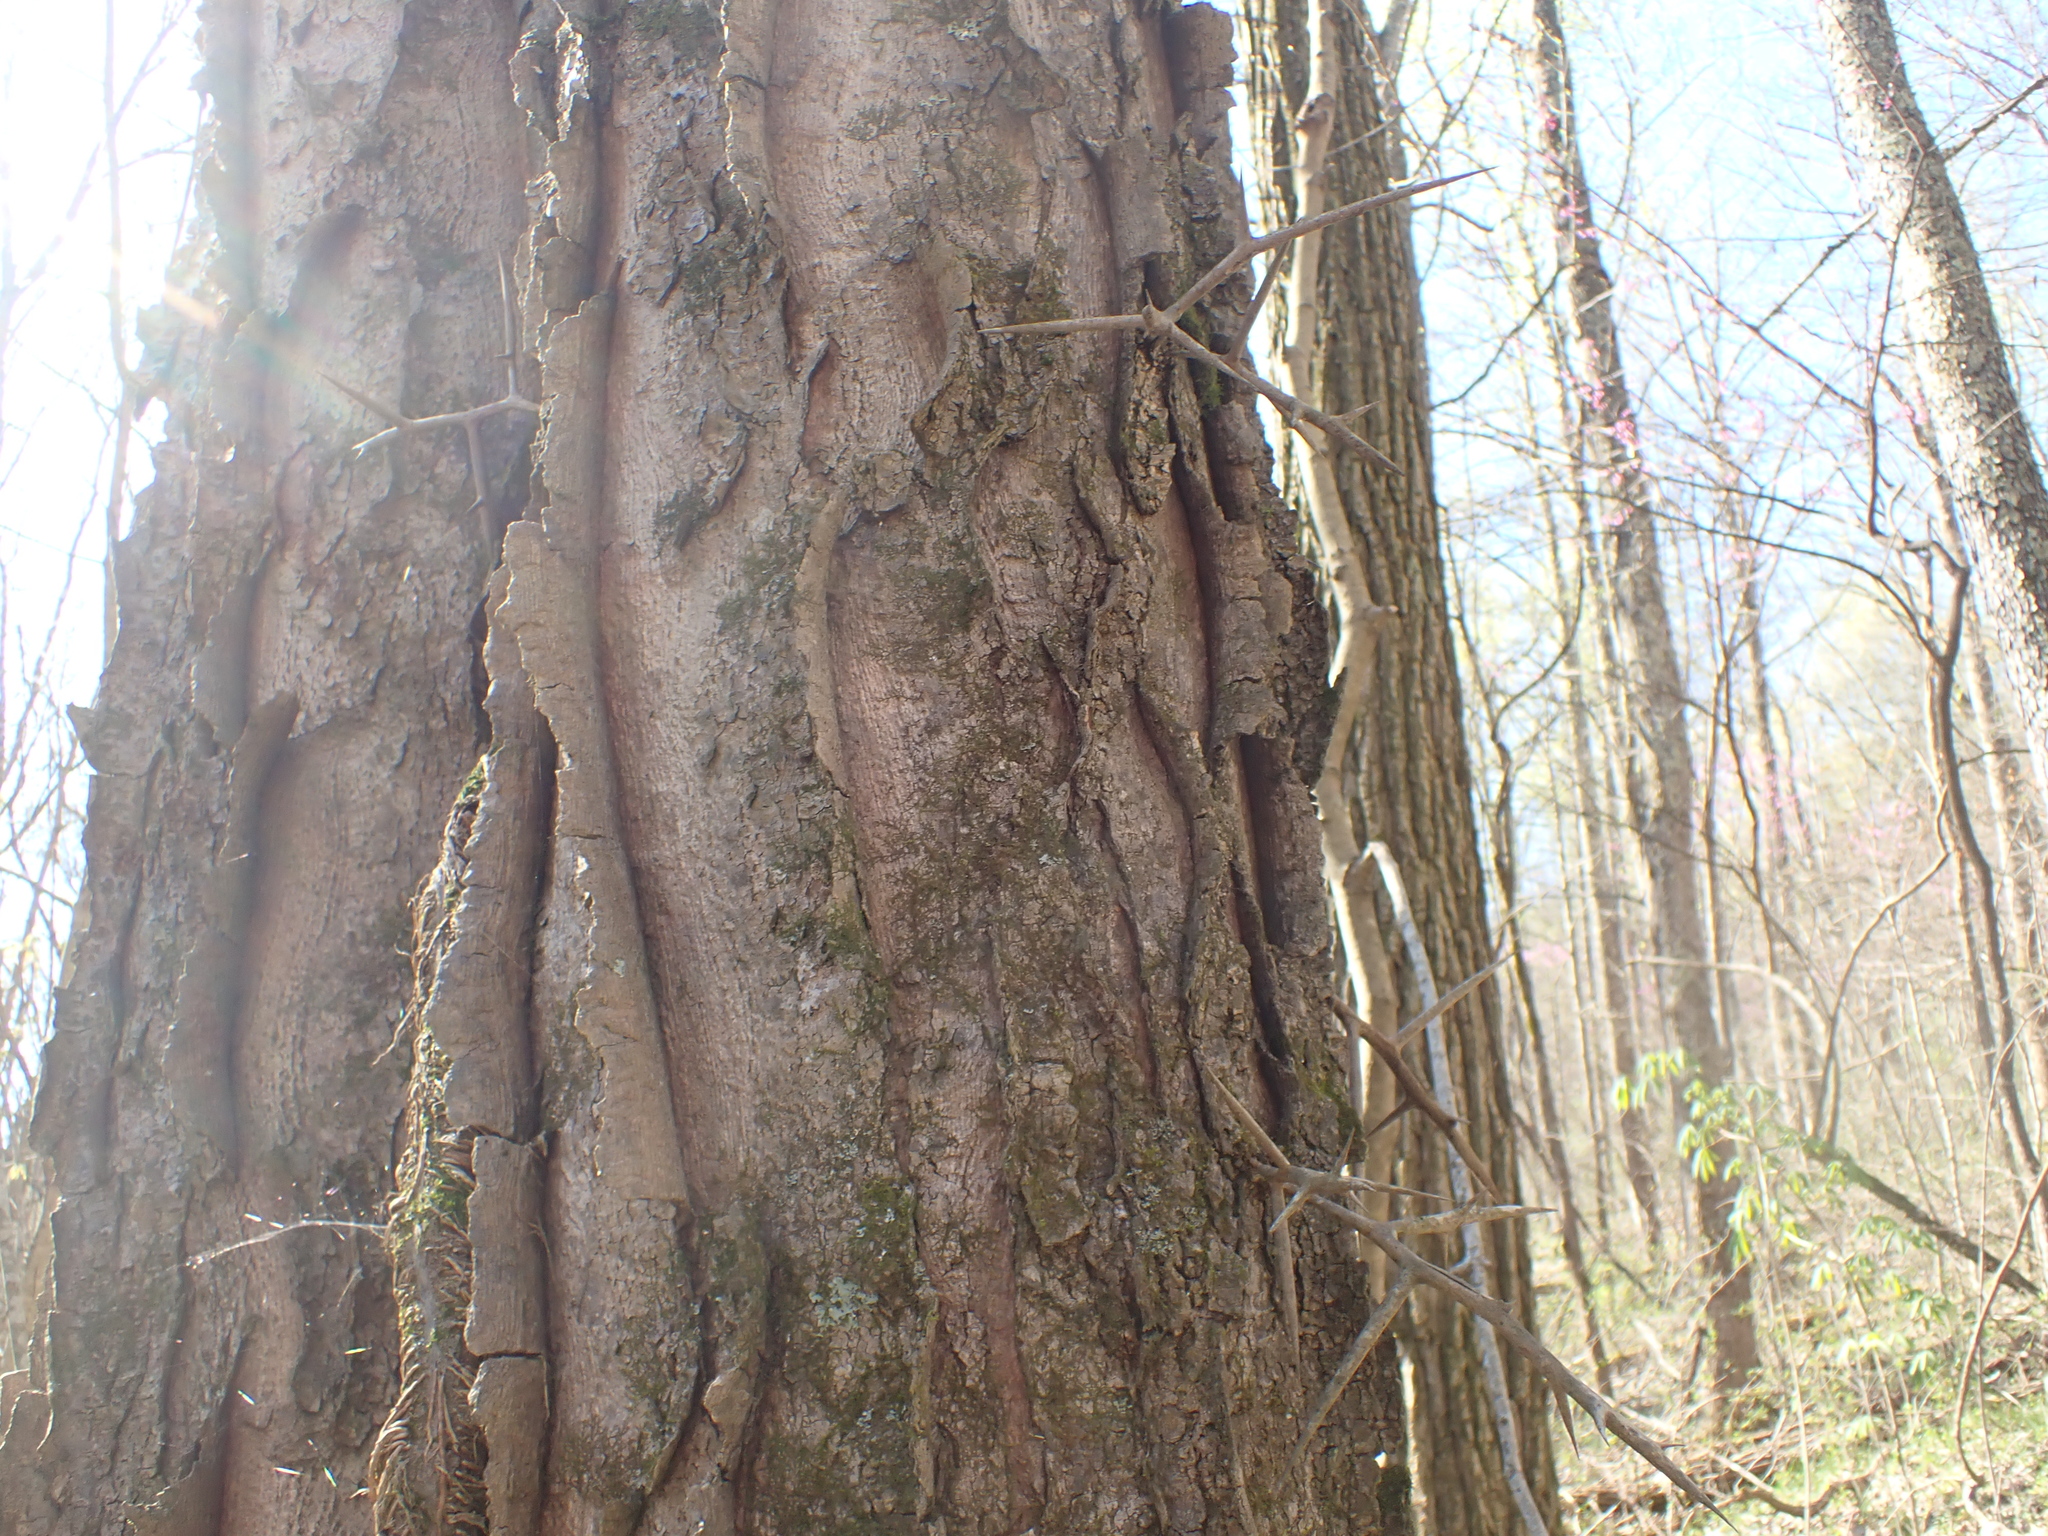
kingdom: Plantae
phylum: Tracheophyta
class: Magnoliopsida
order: Fabales
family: Fabaceae
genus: Gleditsia
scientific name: Gleditsia triacanthos
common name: Common honeylocust
